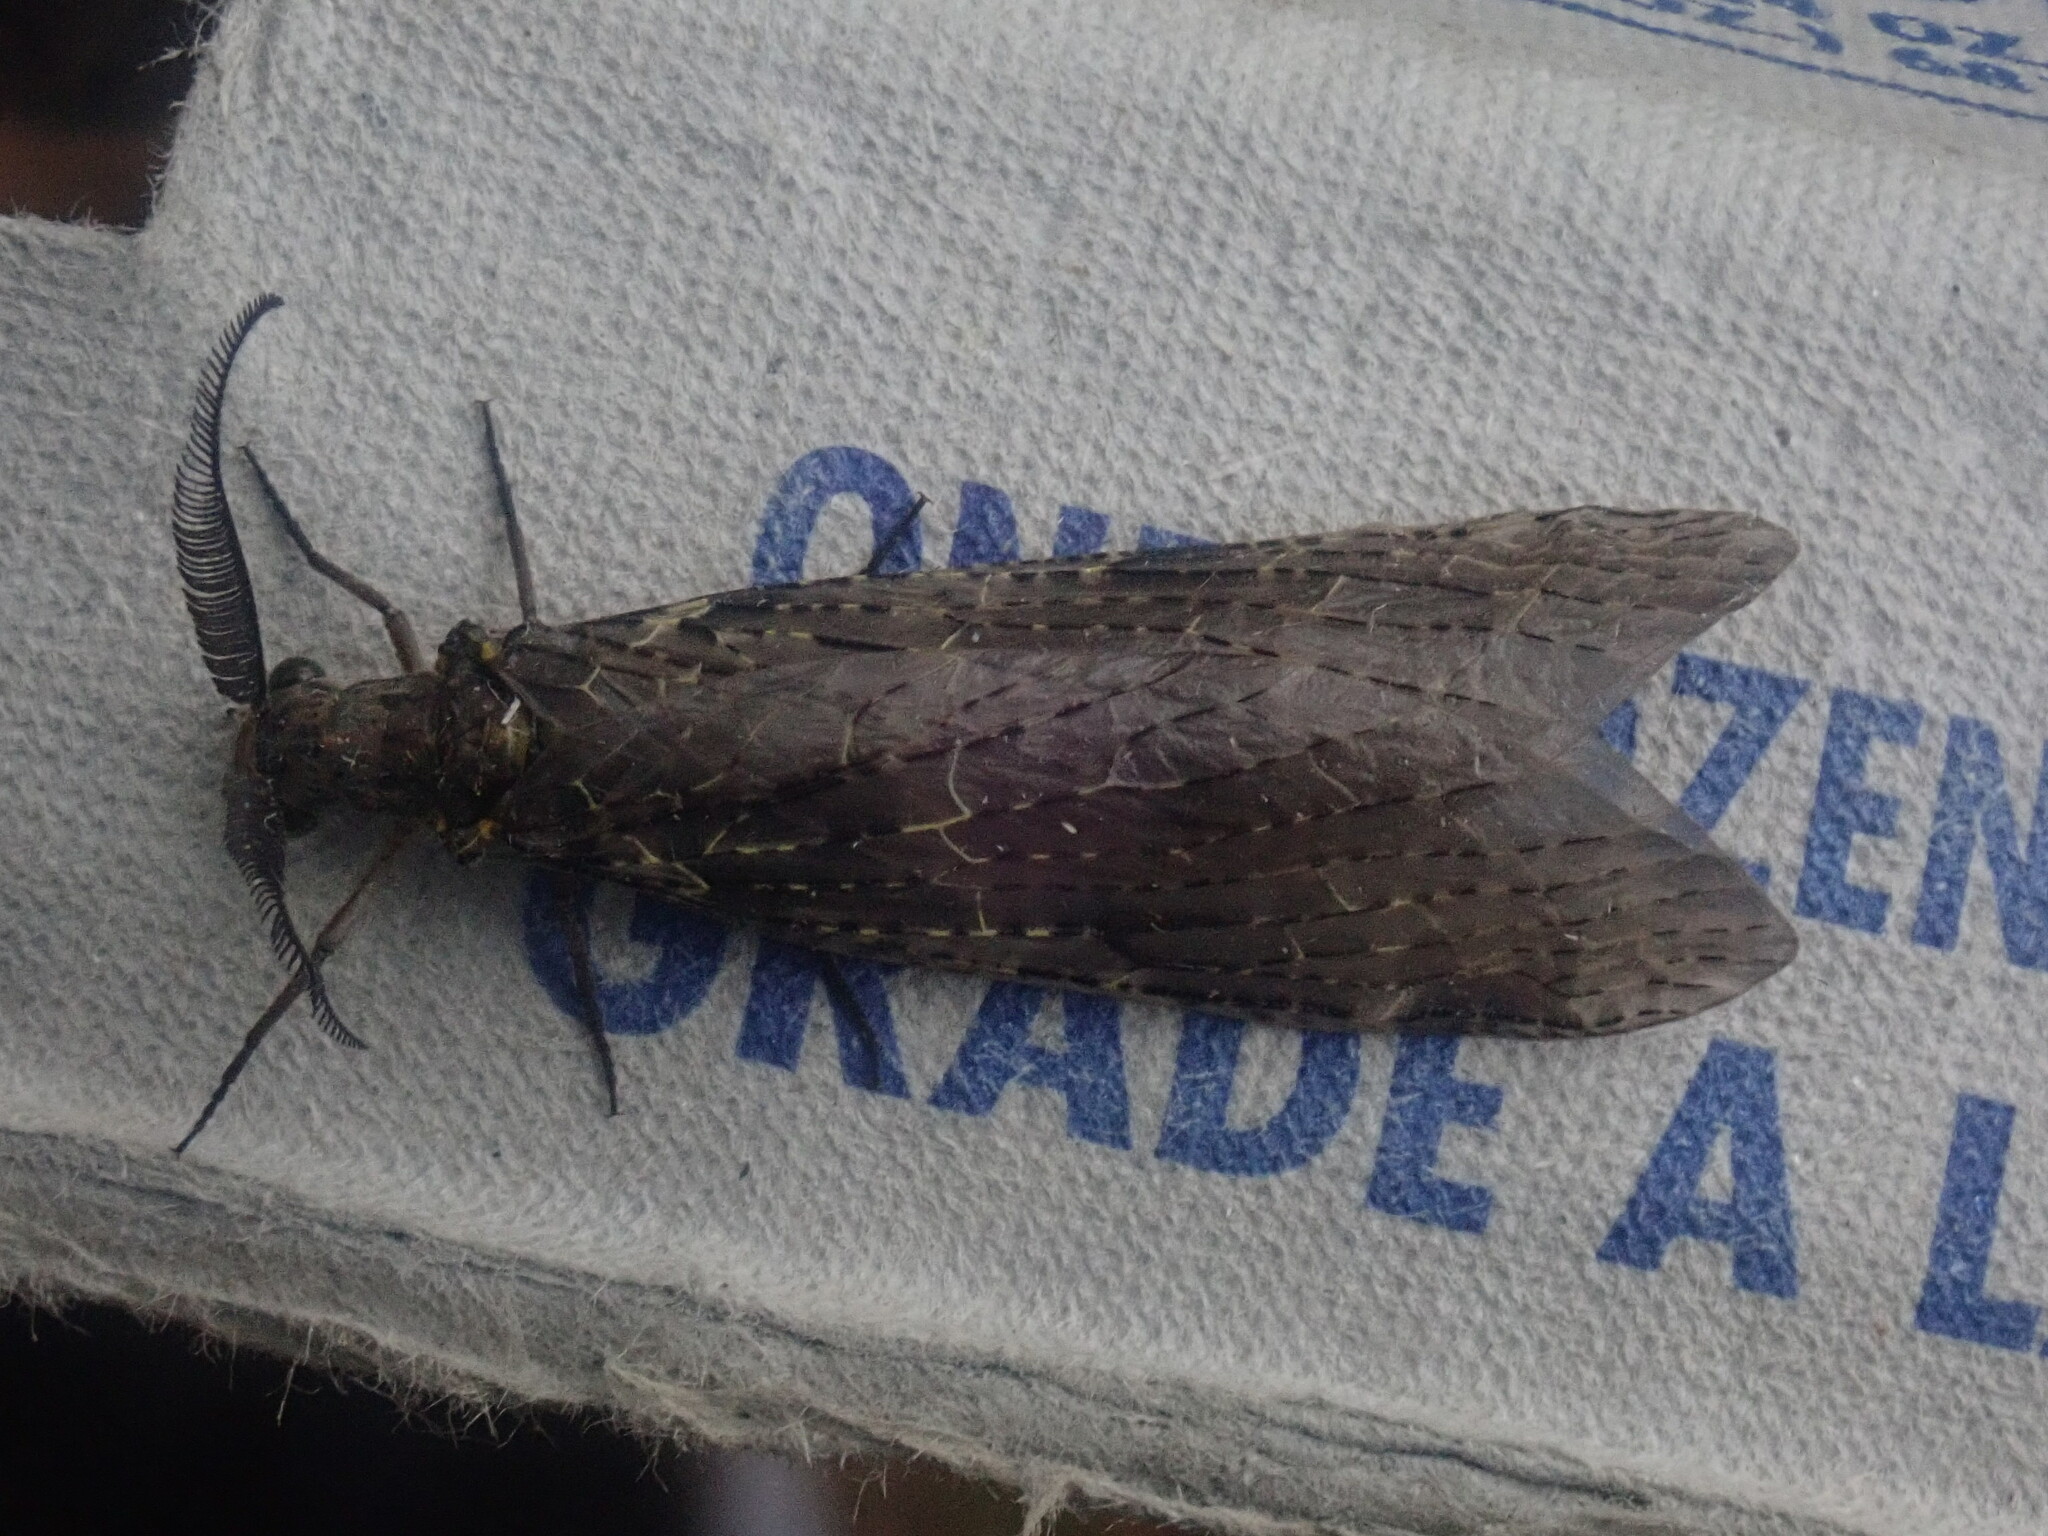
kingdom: Animalia
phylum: Arthropoda
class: Insecta
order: Megaloptera
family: Corydalidae
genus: Chauliodes
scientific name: Chauliodes rastricornis
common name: Spring fishfly
